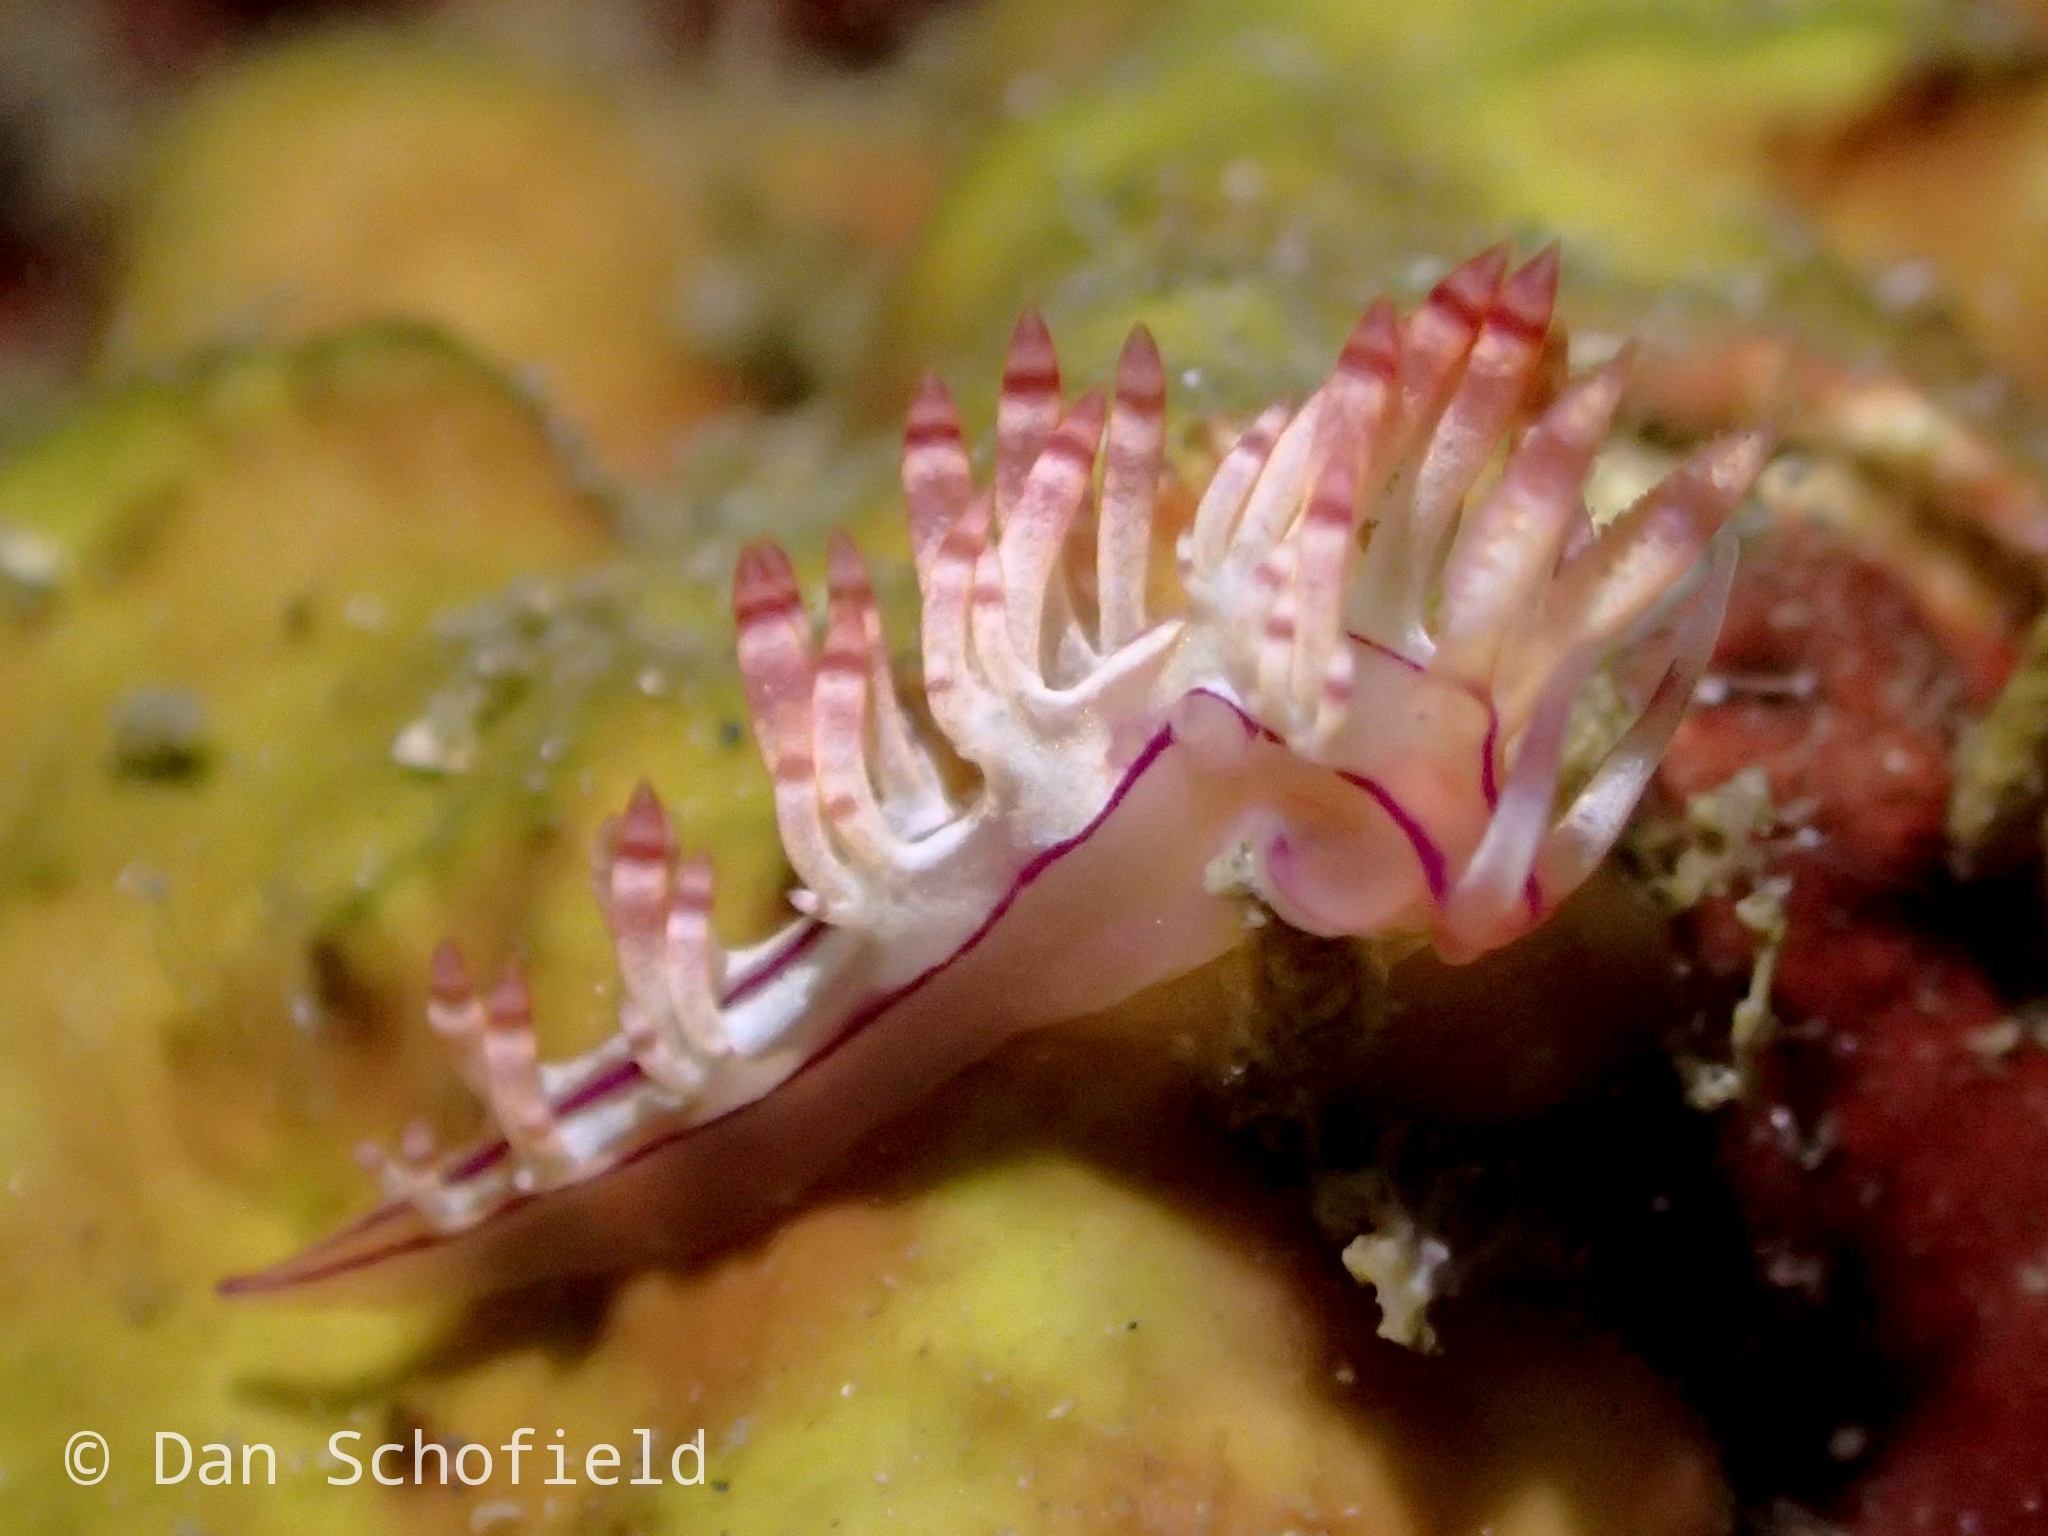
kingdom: Animalia
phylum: Mollusca
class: Gastropoda
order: Nudibranchia
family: Flabellinidae
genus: Coryphellina
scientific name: Coryphellina flamma
